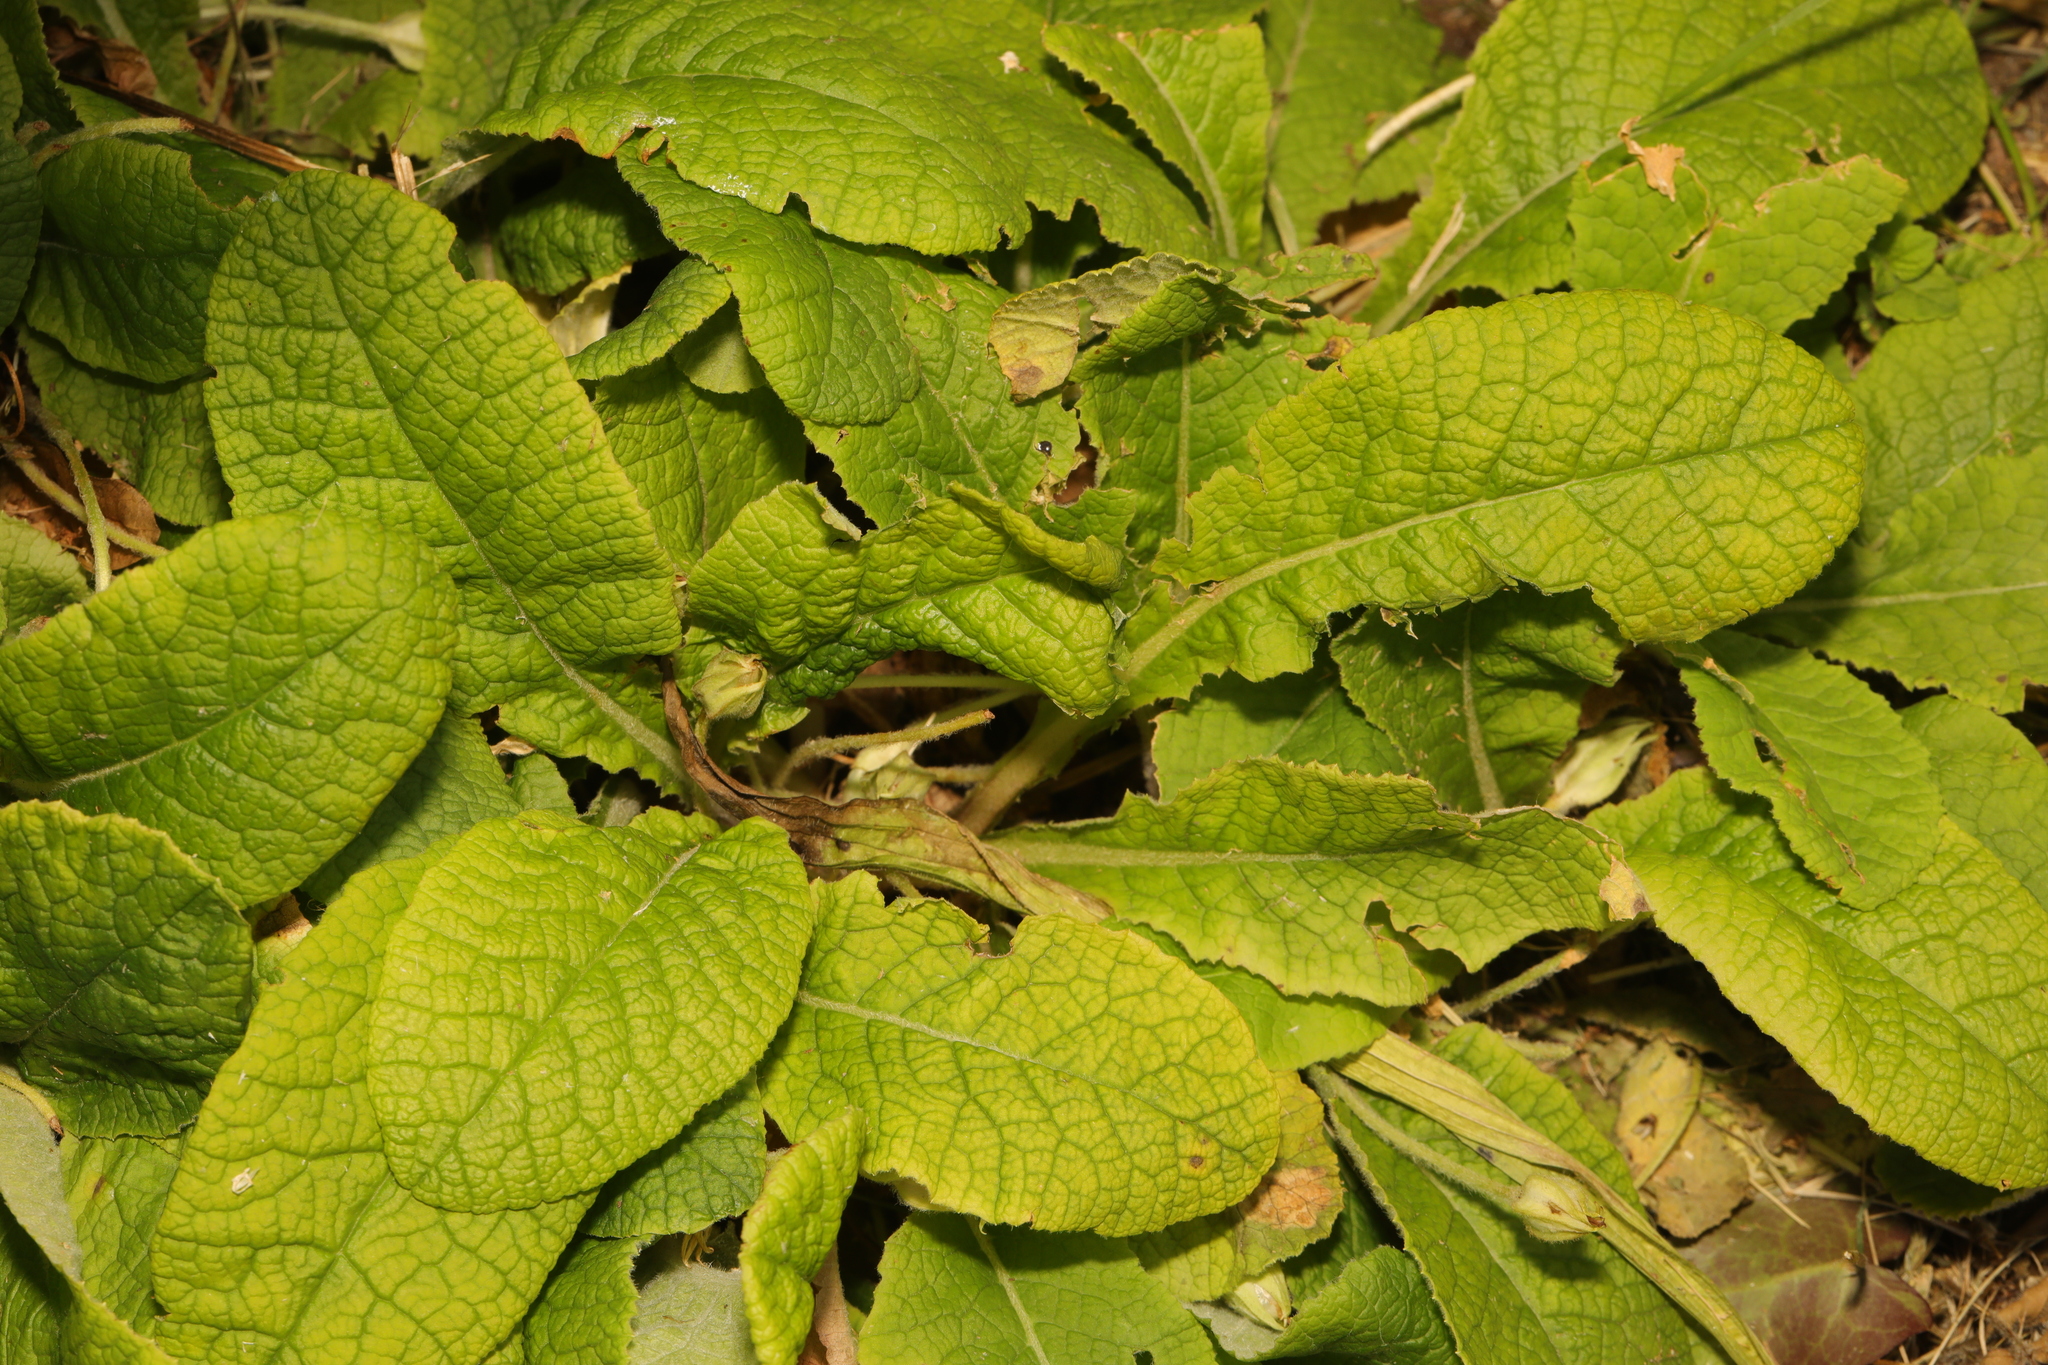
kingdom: Plantae
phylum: Tracheophyta
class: Magnoliopsida
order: Ericales
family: Primulaceae
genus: Primula
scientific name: Primula vulgaris
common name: Primrose
